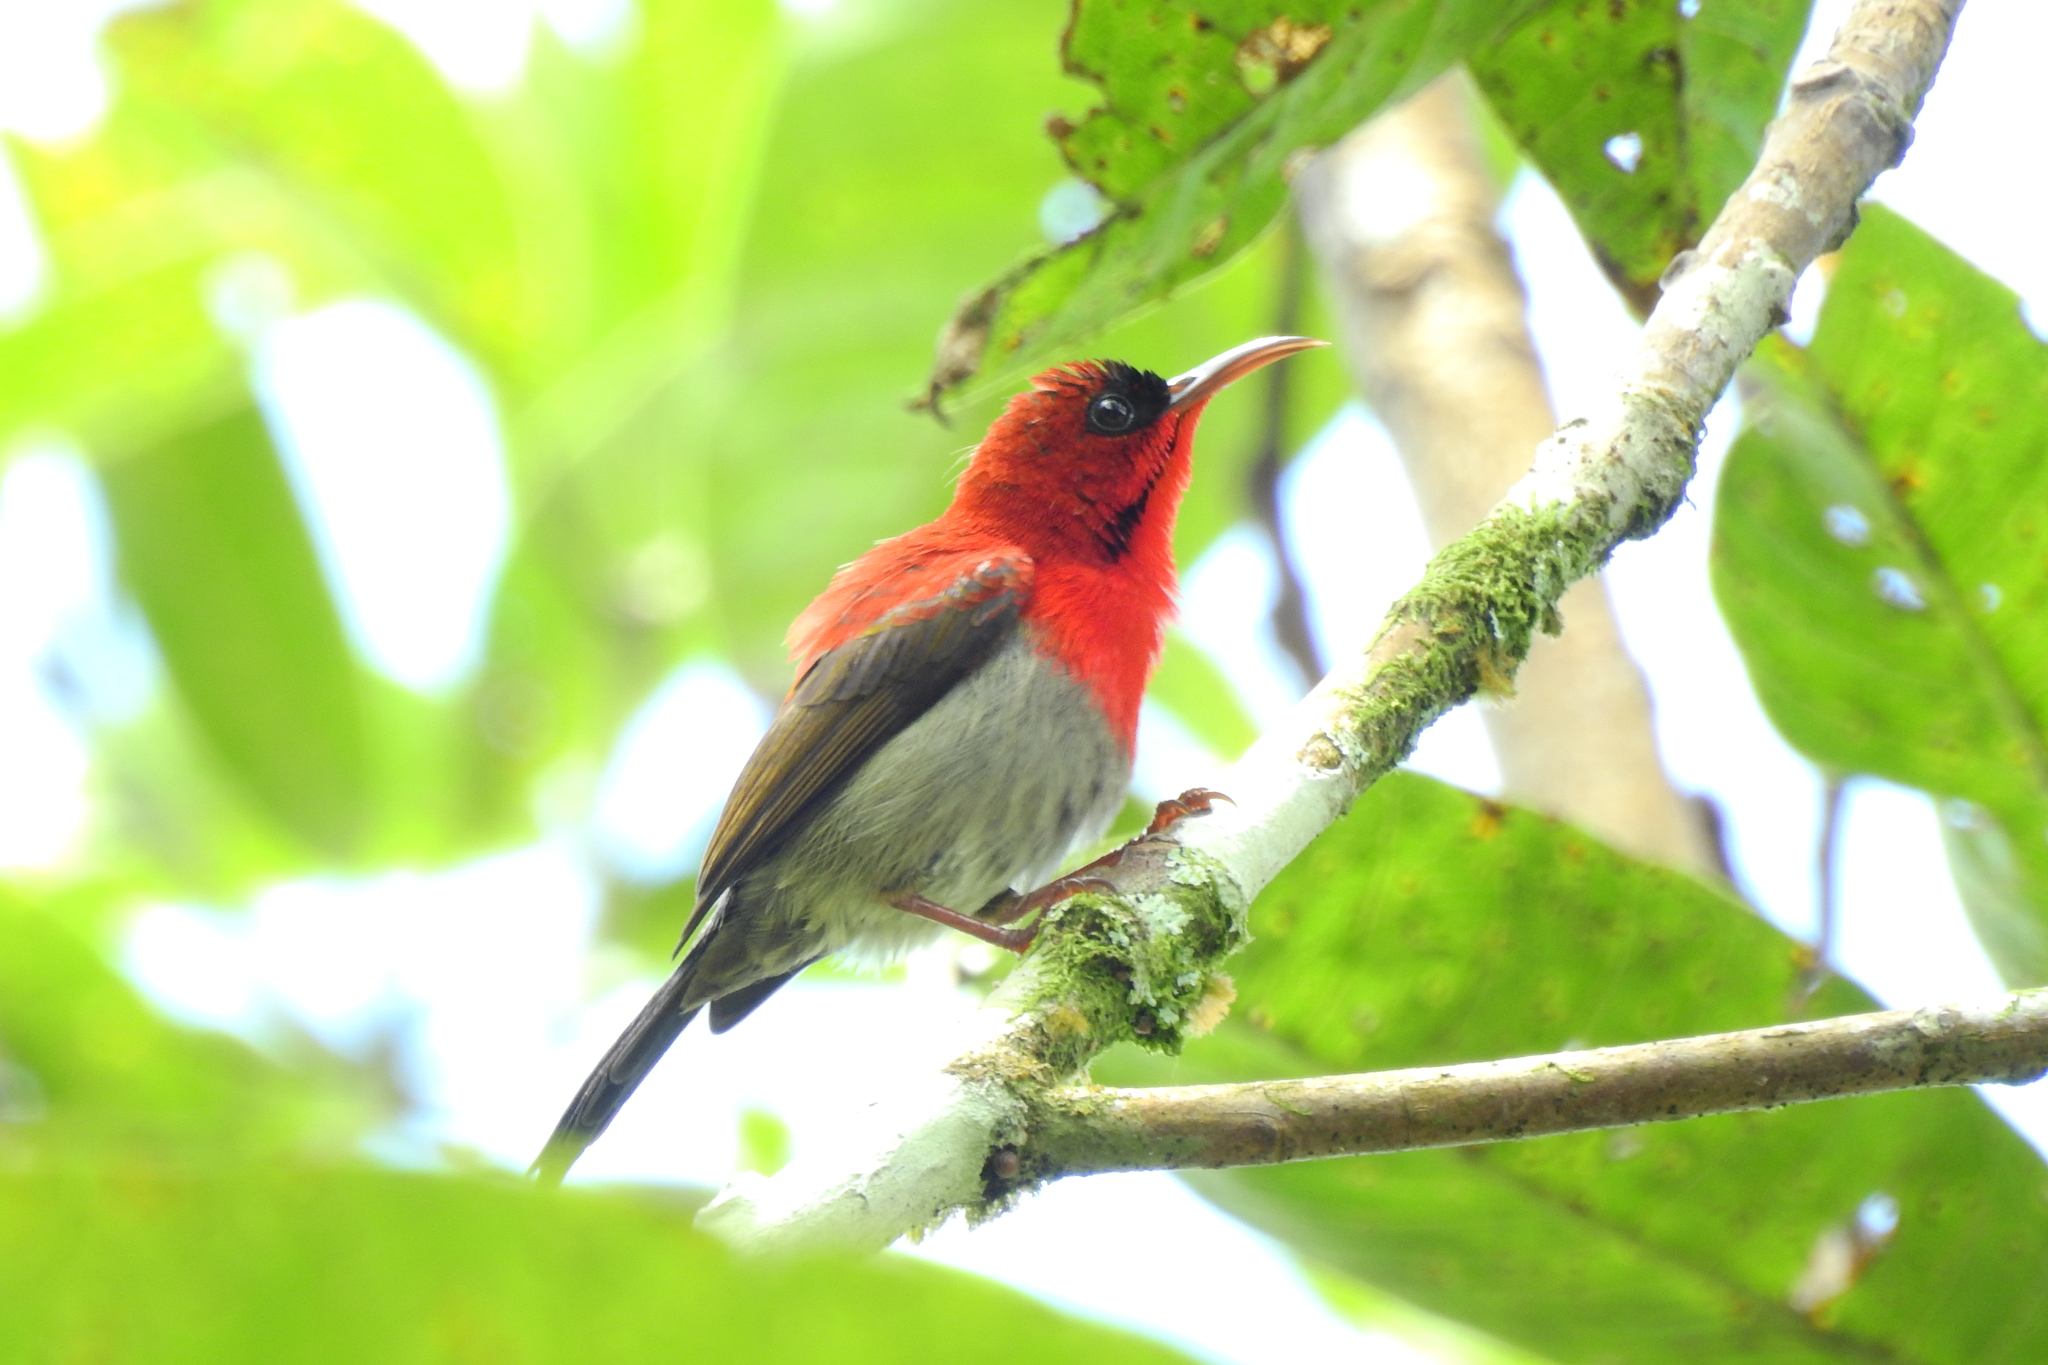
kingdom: Animalia
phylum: Chordata
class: Aves
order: Passeriformes
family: Nectariniidae
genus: Aethopyga
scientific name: Aethopyga siparaja
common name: Crimson sunbird
